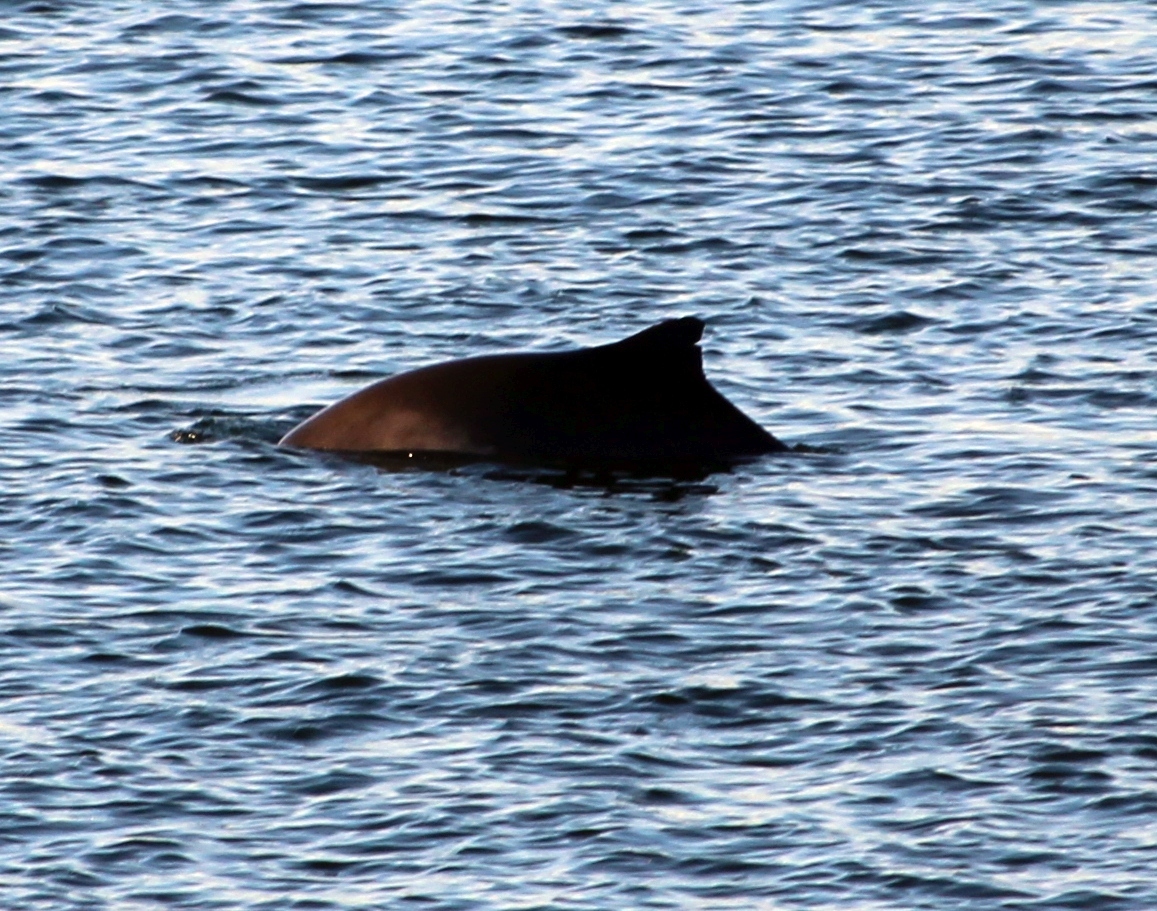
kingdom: Animalia
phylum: Chordata
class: Mammalia
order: Cetacea
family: Phocoenidae
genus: Phocoena
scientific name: Phocoena phocoena
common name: Harbor porpoise
